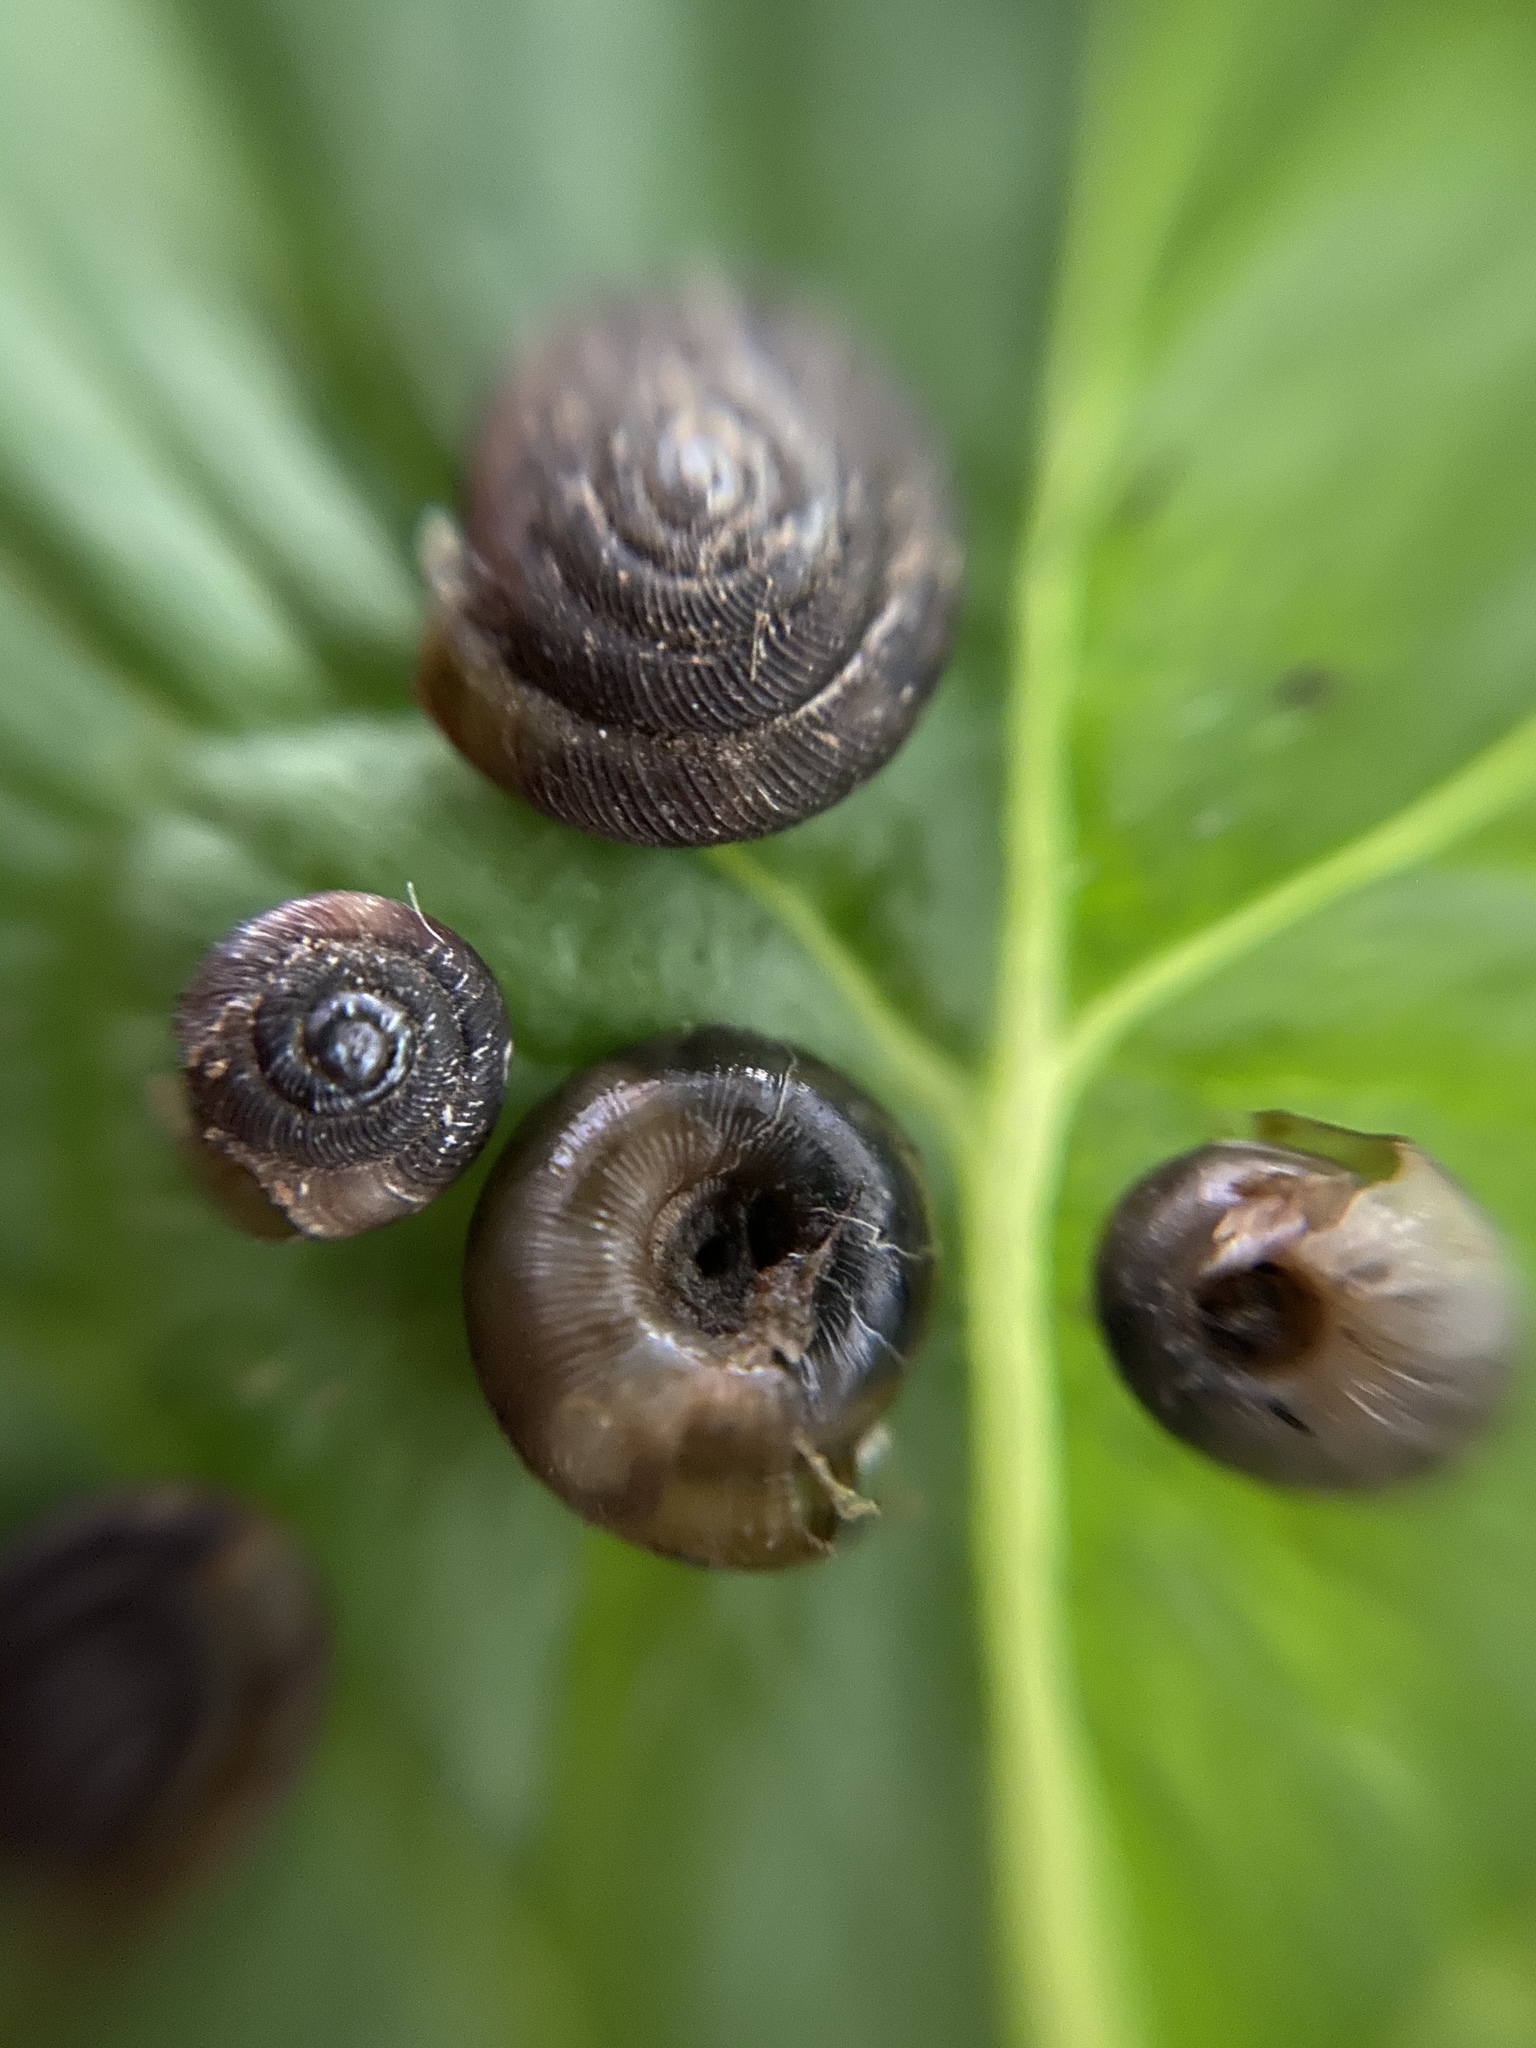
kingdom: Animalia
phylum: Mollusca
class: Gastropoda
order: Stylommatophora
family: Discidae
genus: Discus
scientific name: Discus rotundatus
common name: Rounded snail
